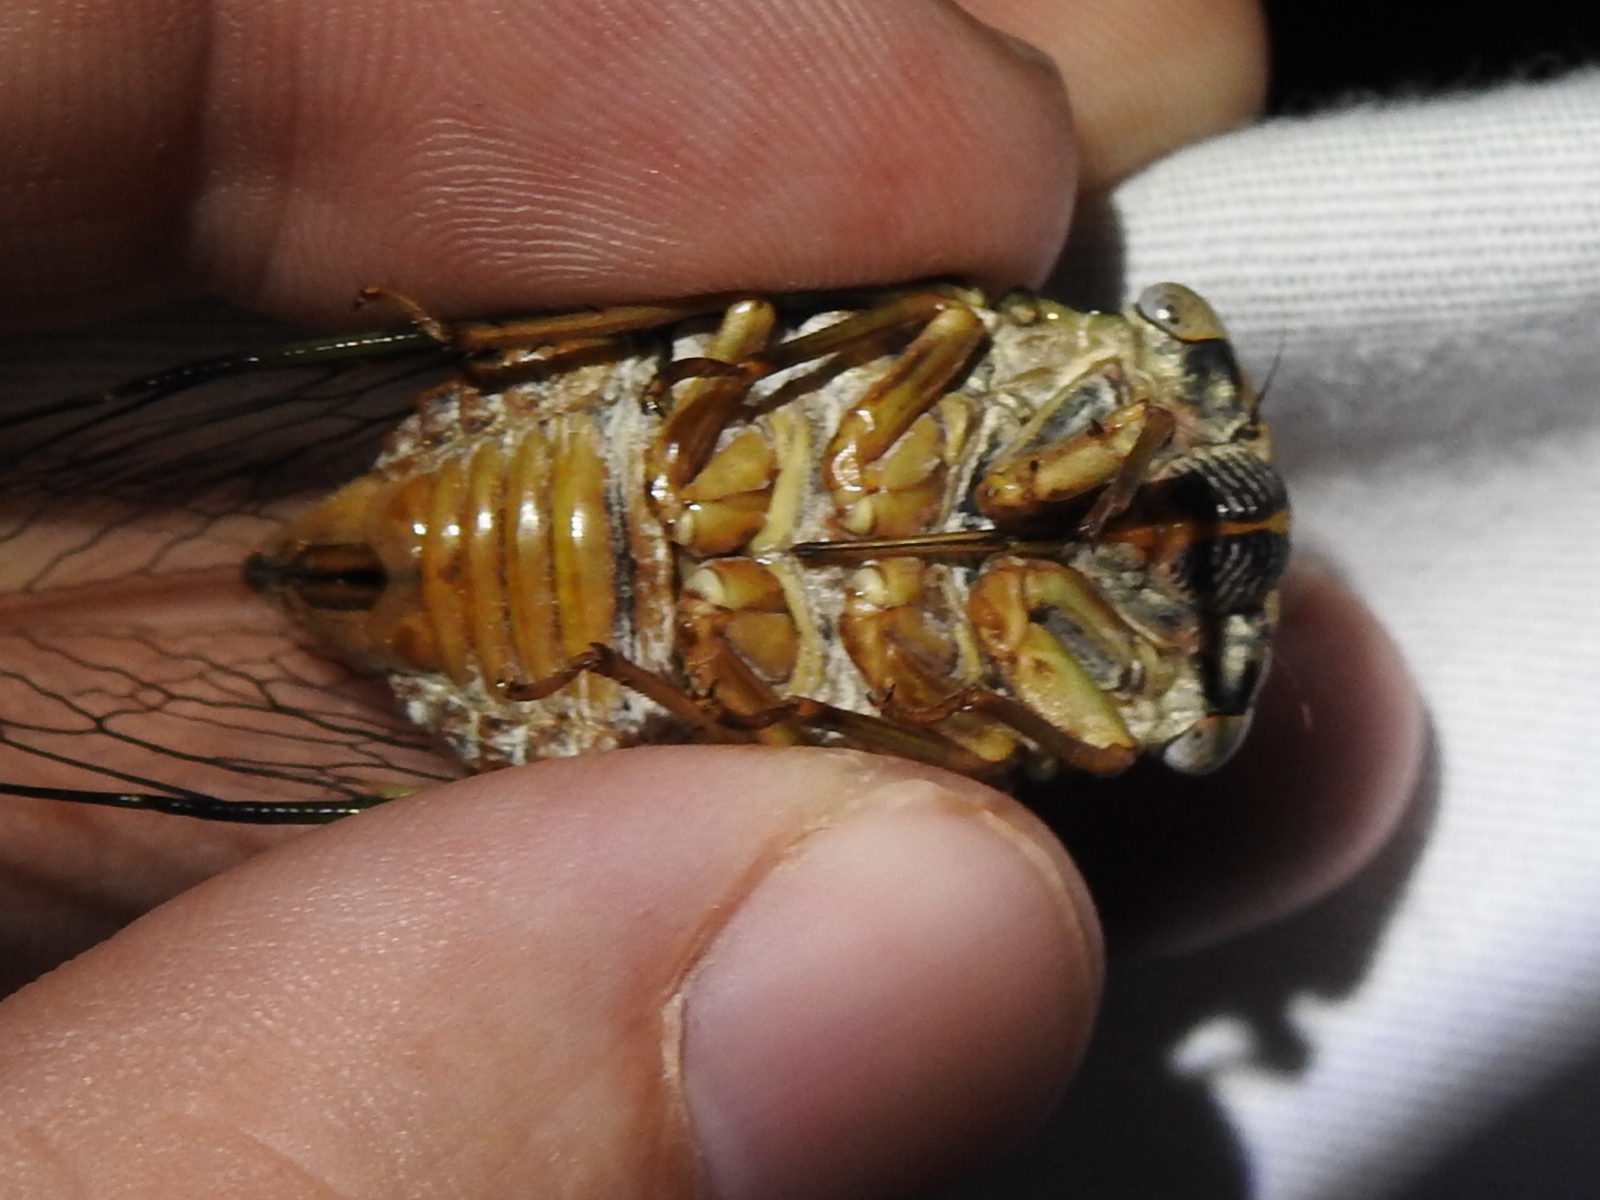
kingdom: Animalia
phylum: Arthropoda
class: Insecta
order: Hemiptera
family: Cicadidae
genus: Megatibicen
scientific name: Megatibicen resh
